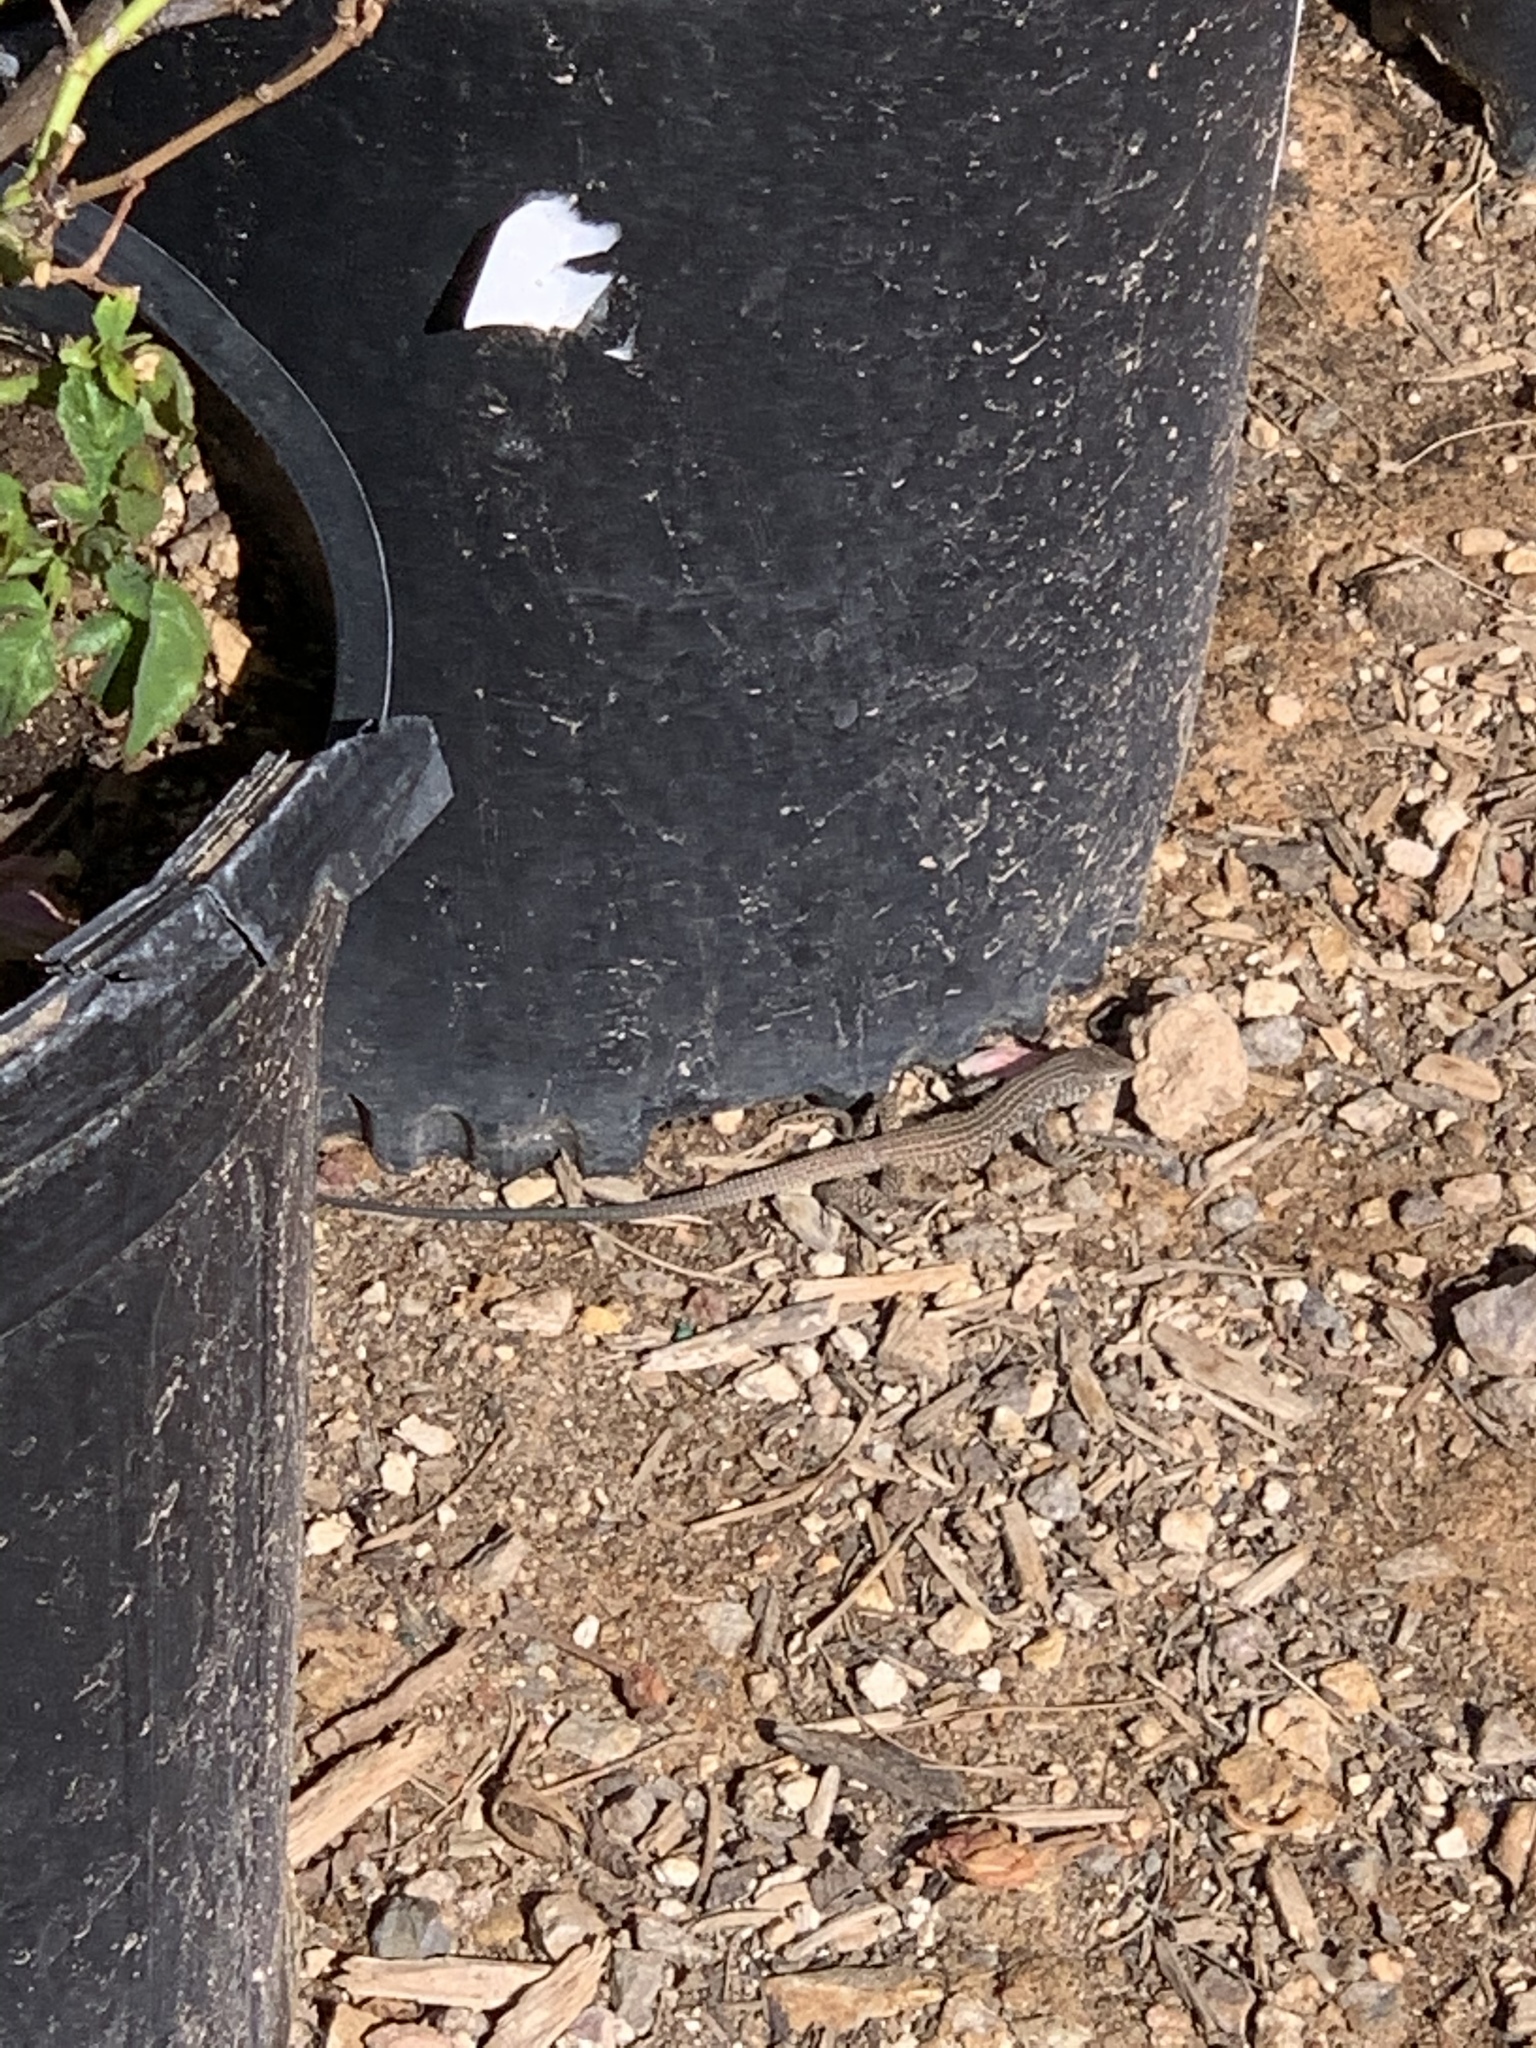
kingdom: Animalia
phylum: Chordata
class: Squamata
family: Teiidae
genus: Aspidoscelis
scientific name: Aspidoscelis tigris
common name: Tiger whiptail
